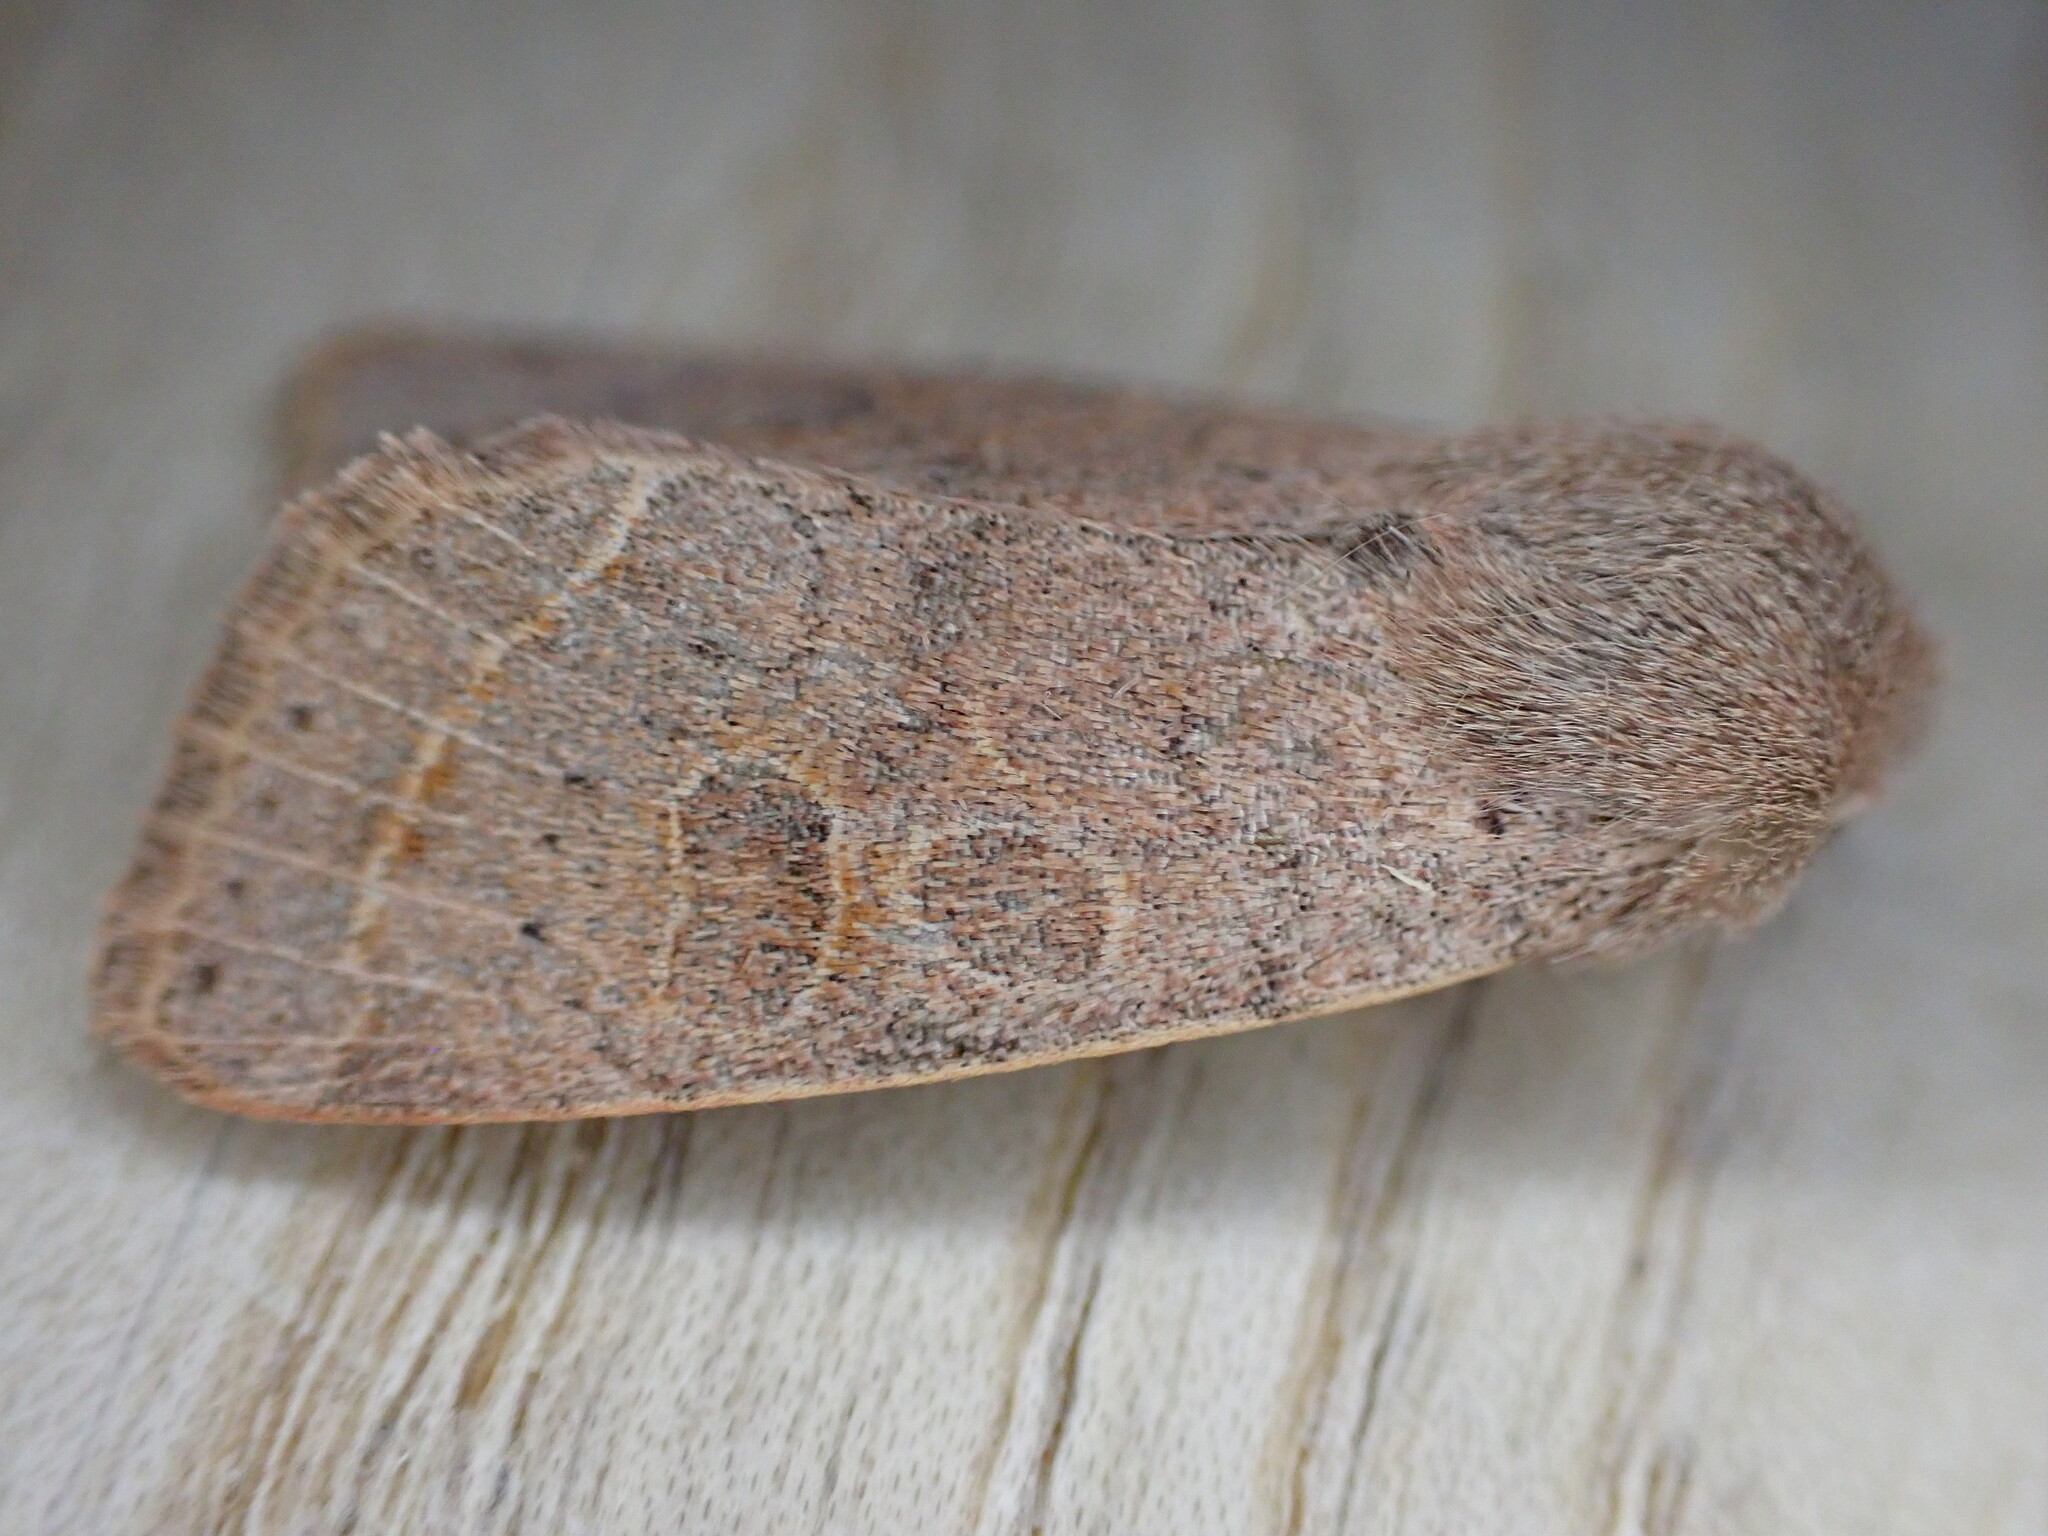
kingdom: Animalia
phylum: Arthropoda
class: Insecta
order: Lepidoptera
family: Noctuidae
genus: Orthosia
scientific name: Orthosia cerasi
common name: Common quaker
